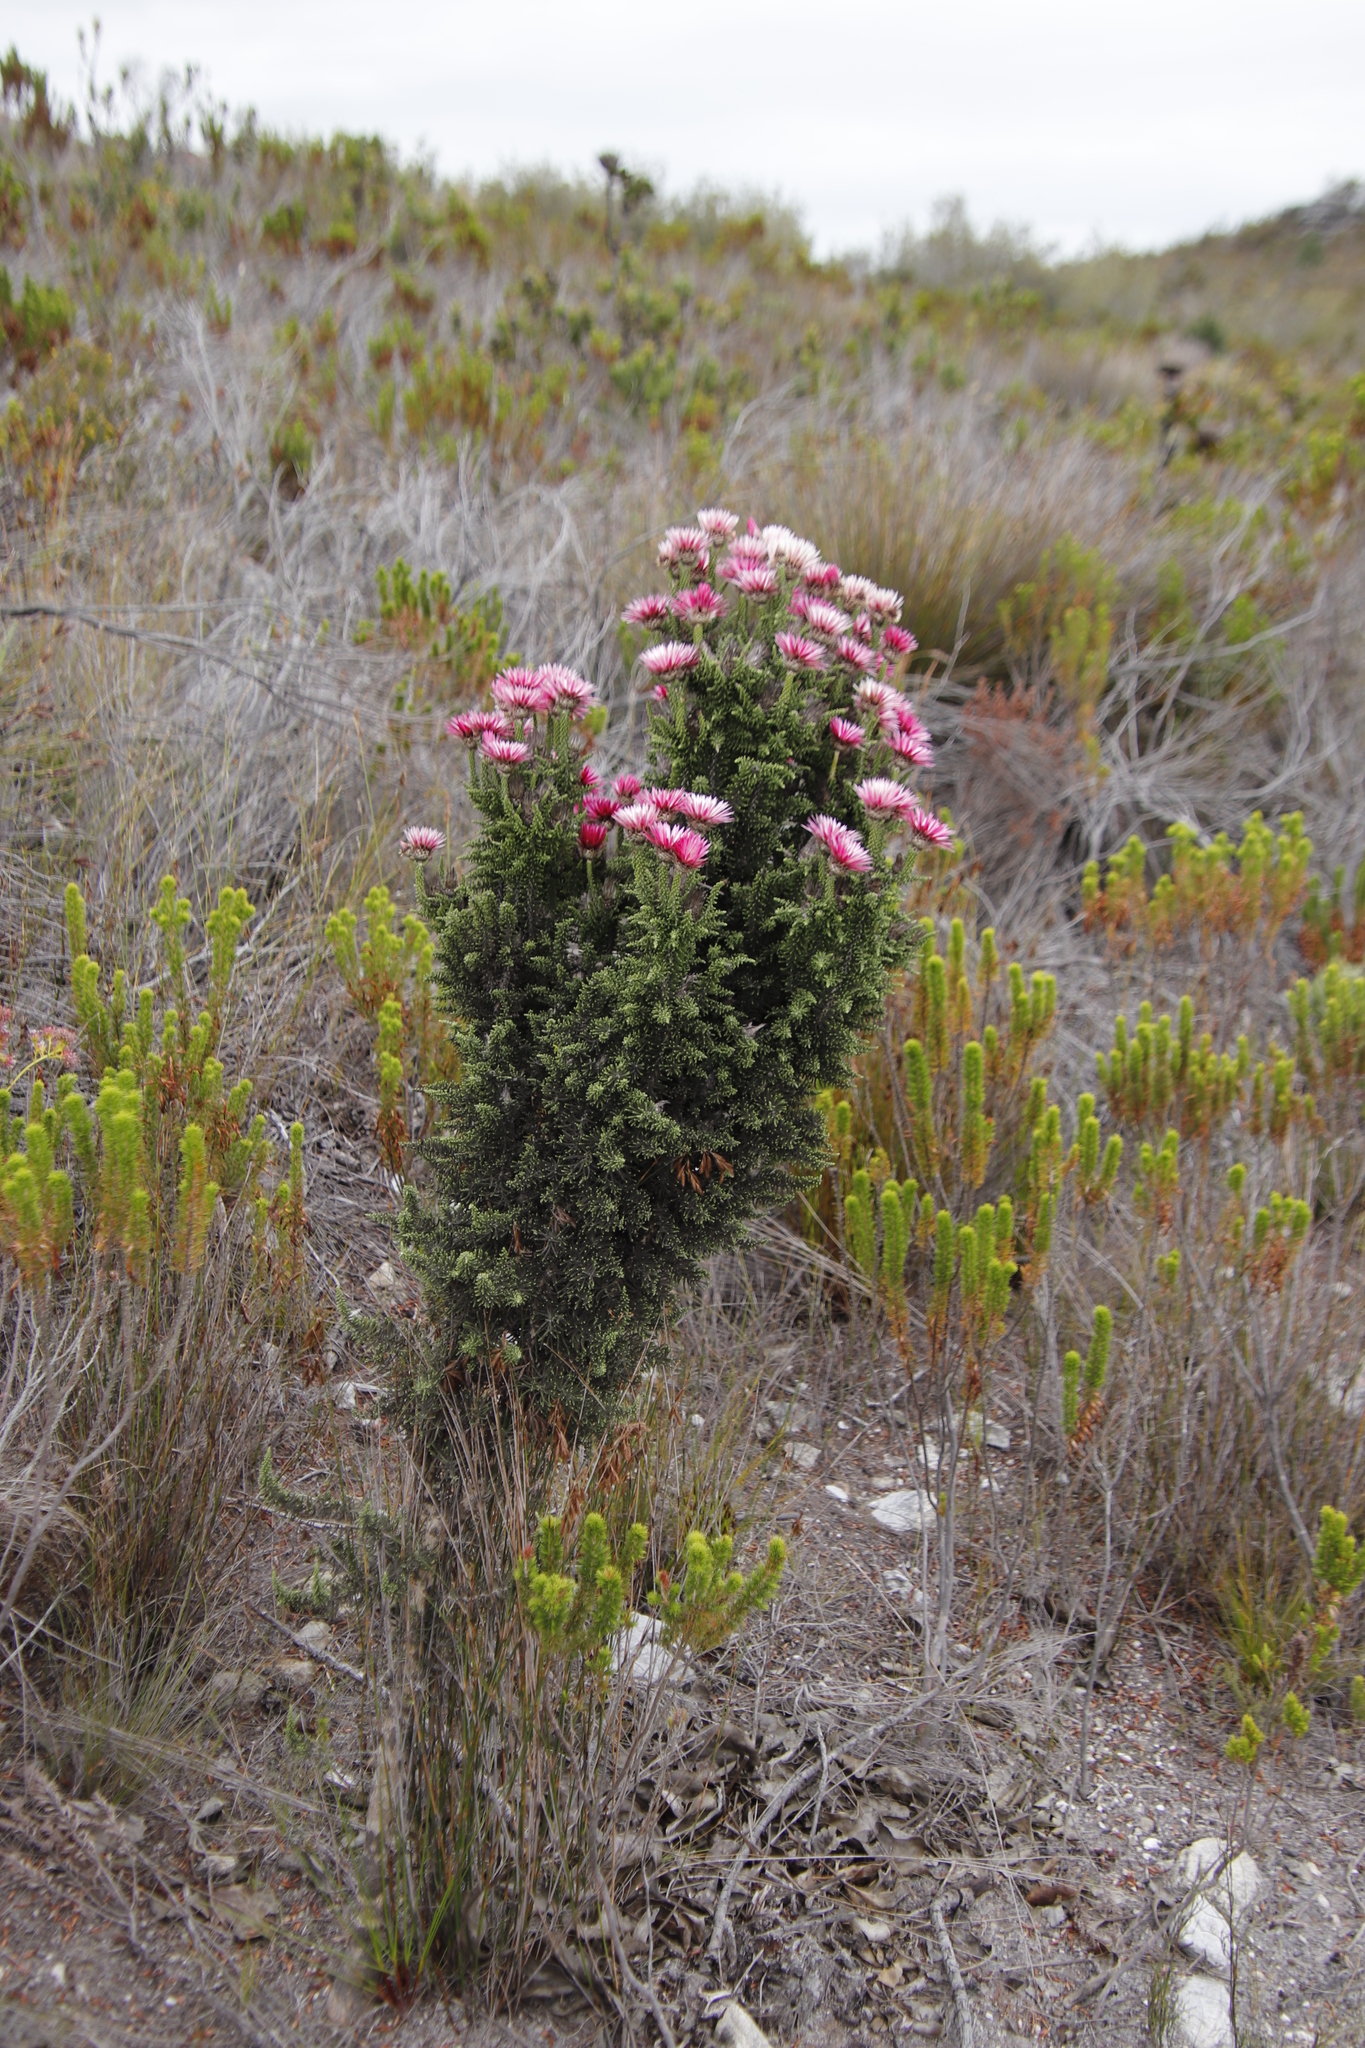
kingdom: Plantae
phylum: Tracheophyta
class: Magnoliopsida
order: Asterales
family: Asteraceae
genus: Phaenocoma
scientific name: Phaenocoma prolifera
